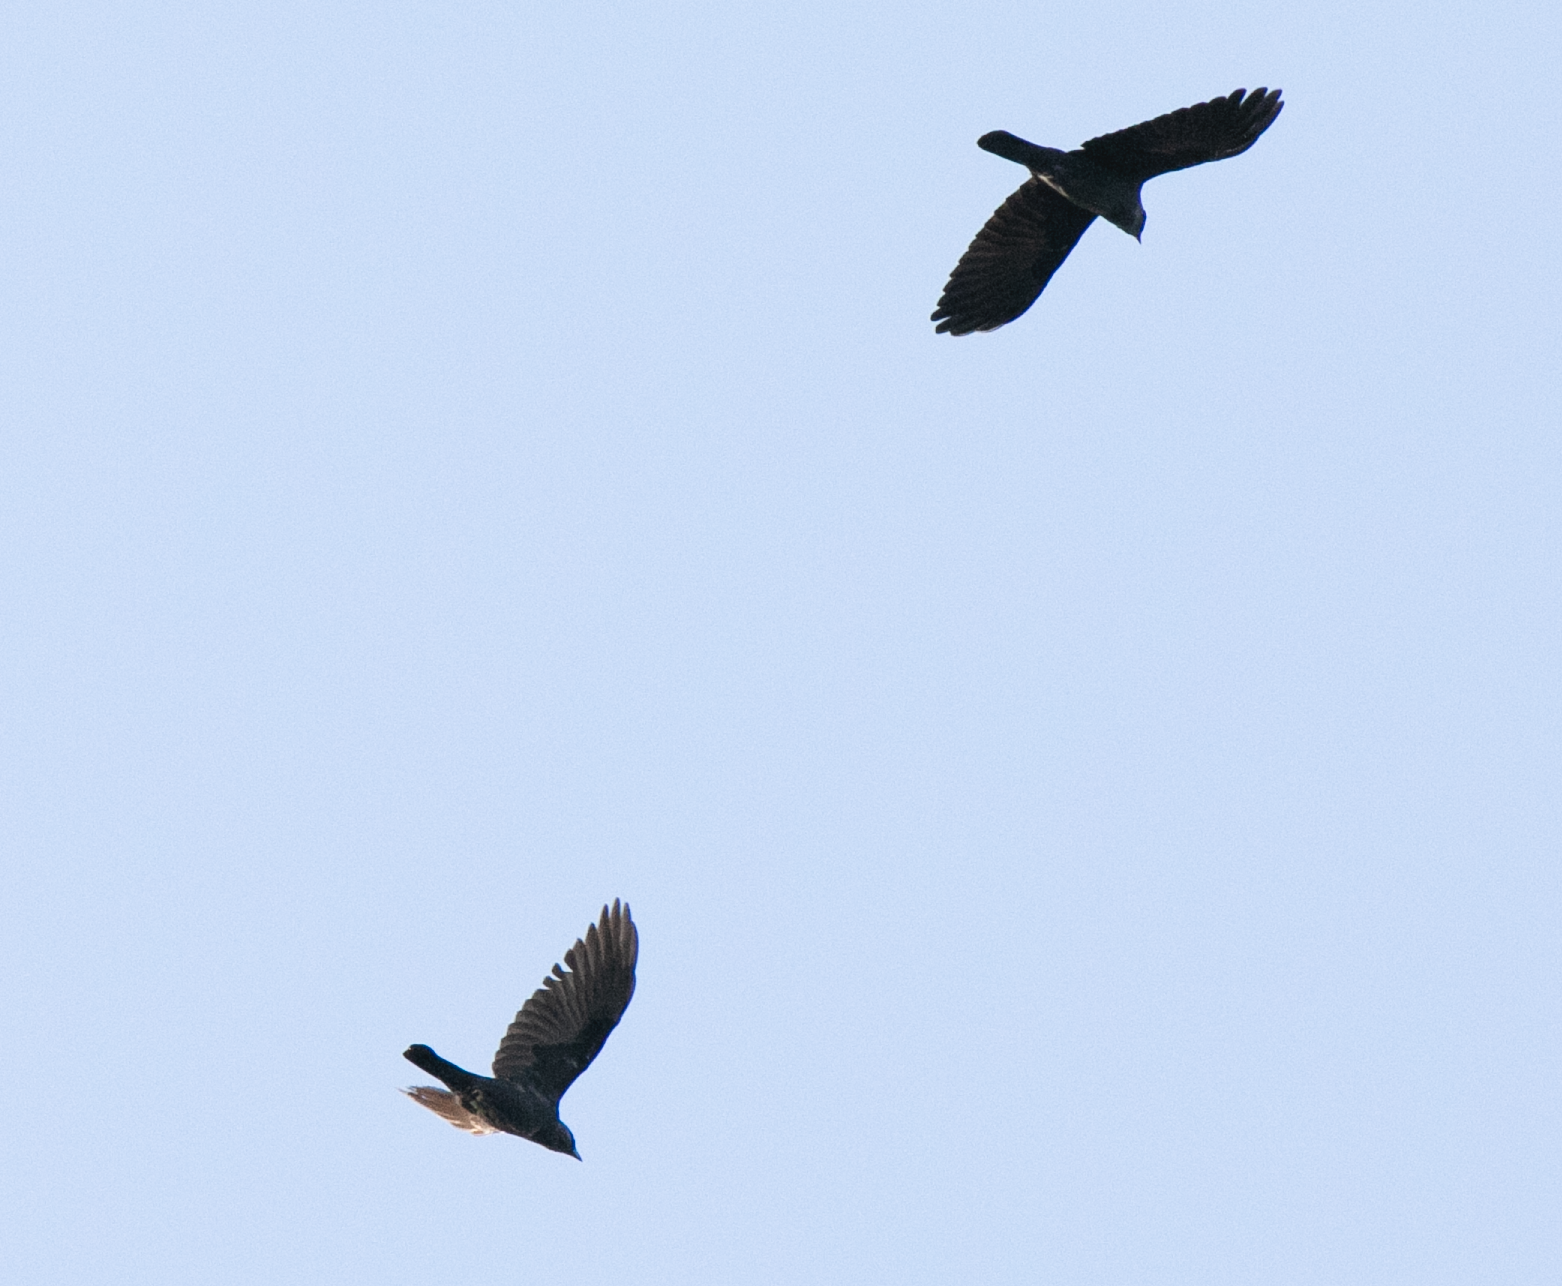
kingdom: Animalia
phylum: Chordata
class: Aves
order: Passeriformes
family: Corvidae
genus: Coloeus
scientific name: Coloeus monedula
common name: Western jackdaw
